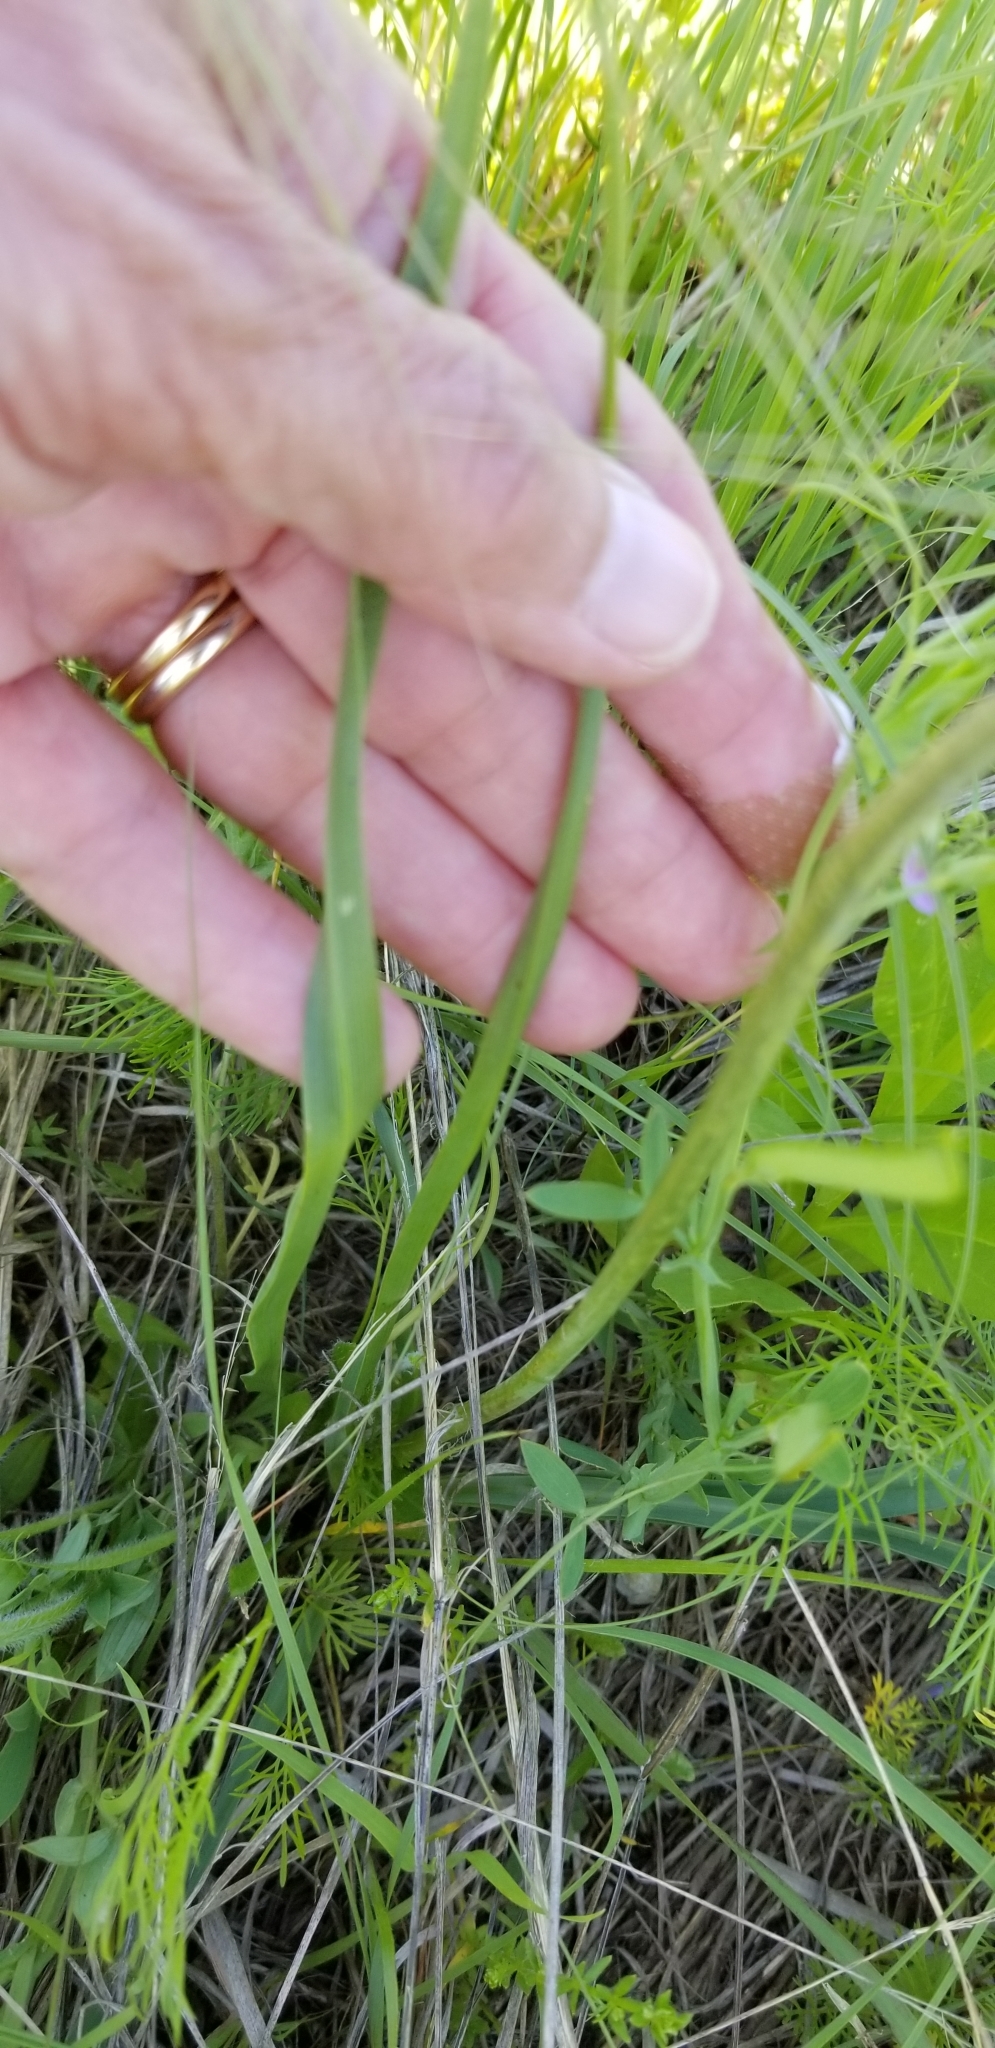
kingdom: Plantae
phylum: Tracheophyta
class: Liliopsida
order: Asparagales
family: Asparagaceae
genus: Camassia
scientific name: Camassia scilloides
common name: Wild hyacinth
